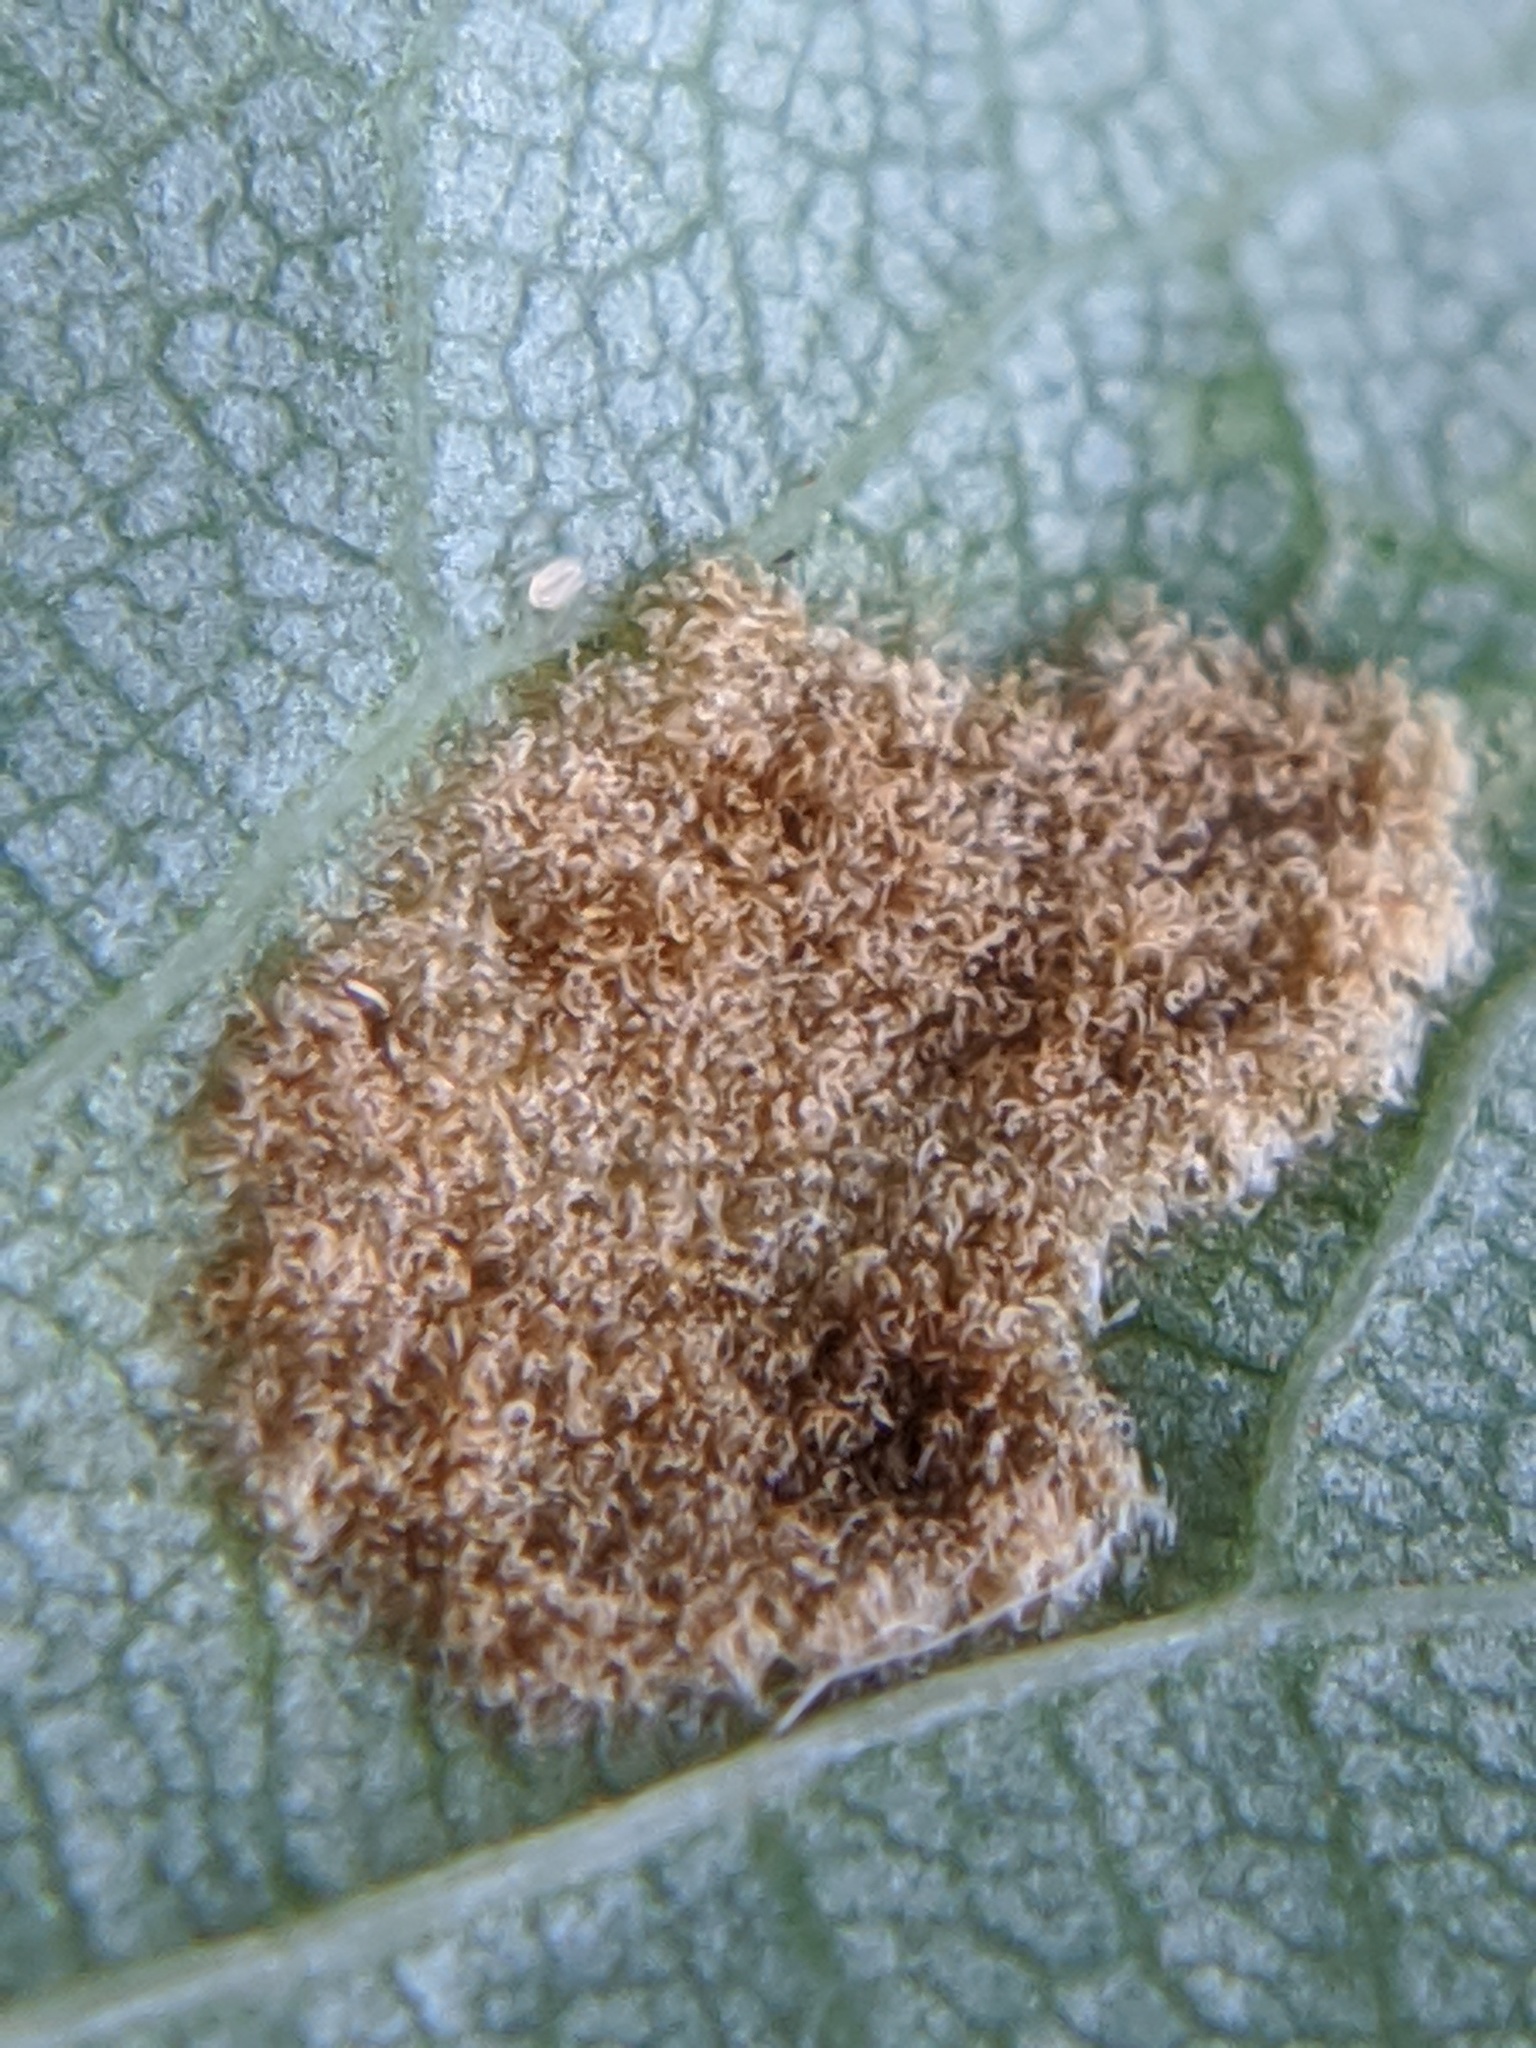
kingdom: Animalia
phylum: Arthropoda
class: Arachnida
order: Trombidiformes
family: Eriophyidae
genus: Eriophyes
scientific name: Eriophyes leiosoma
